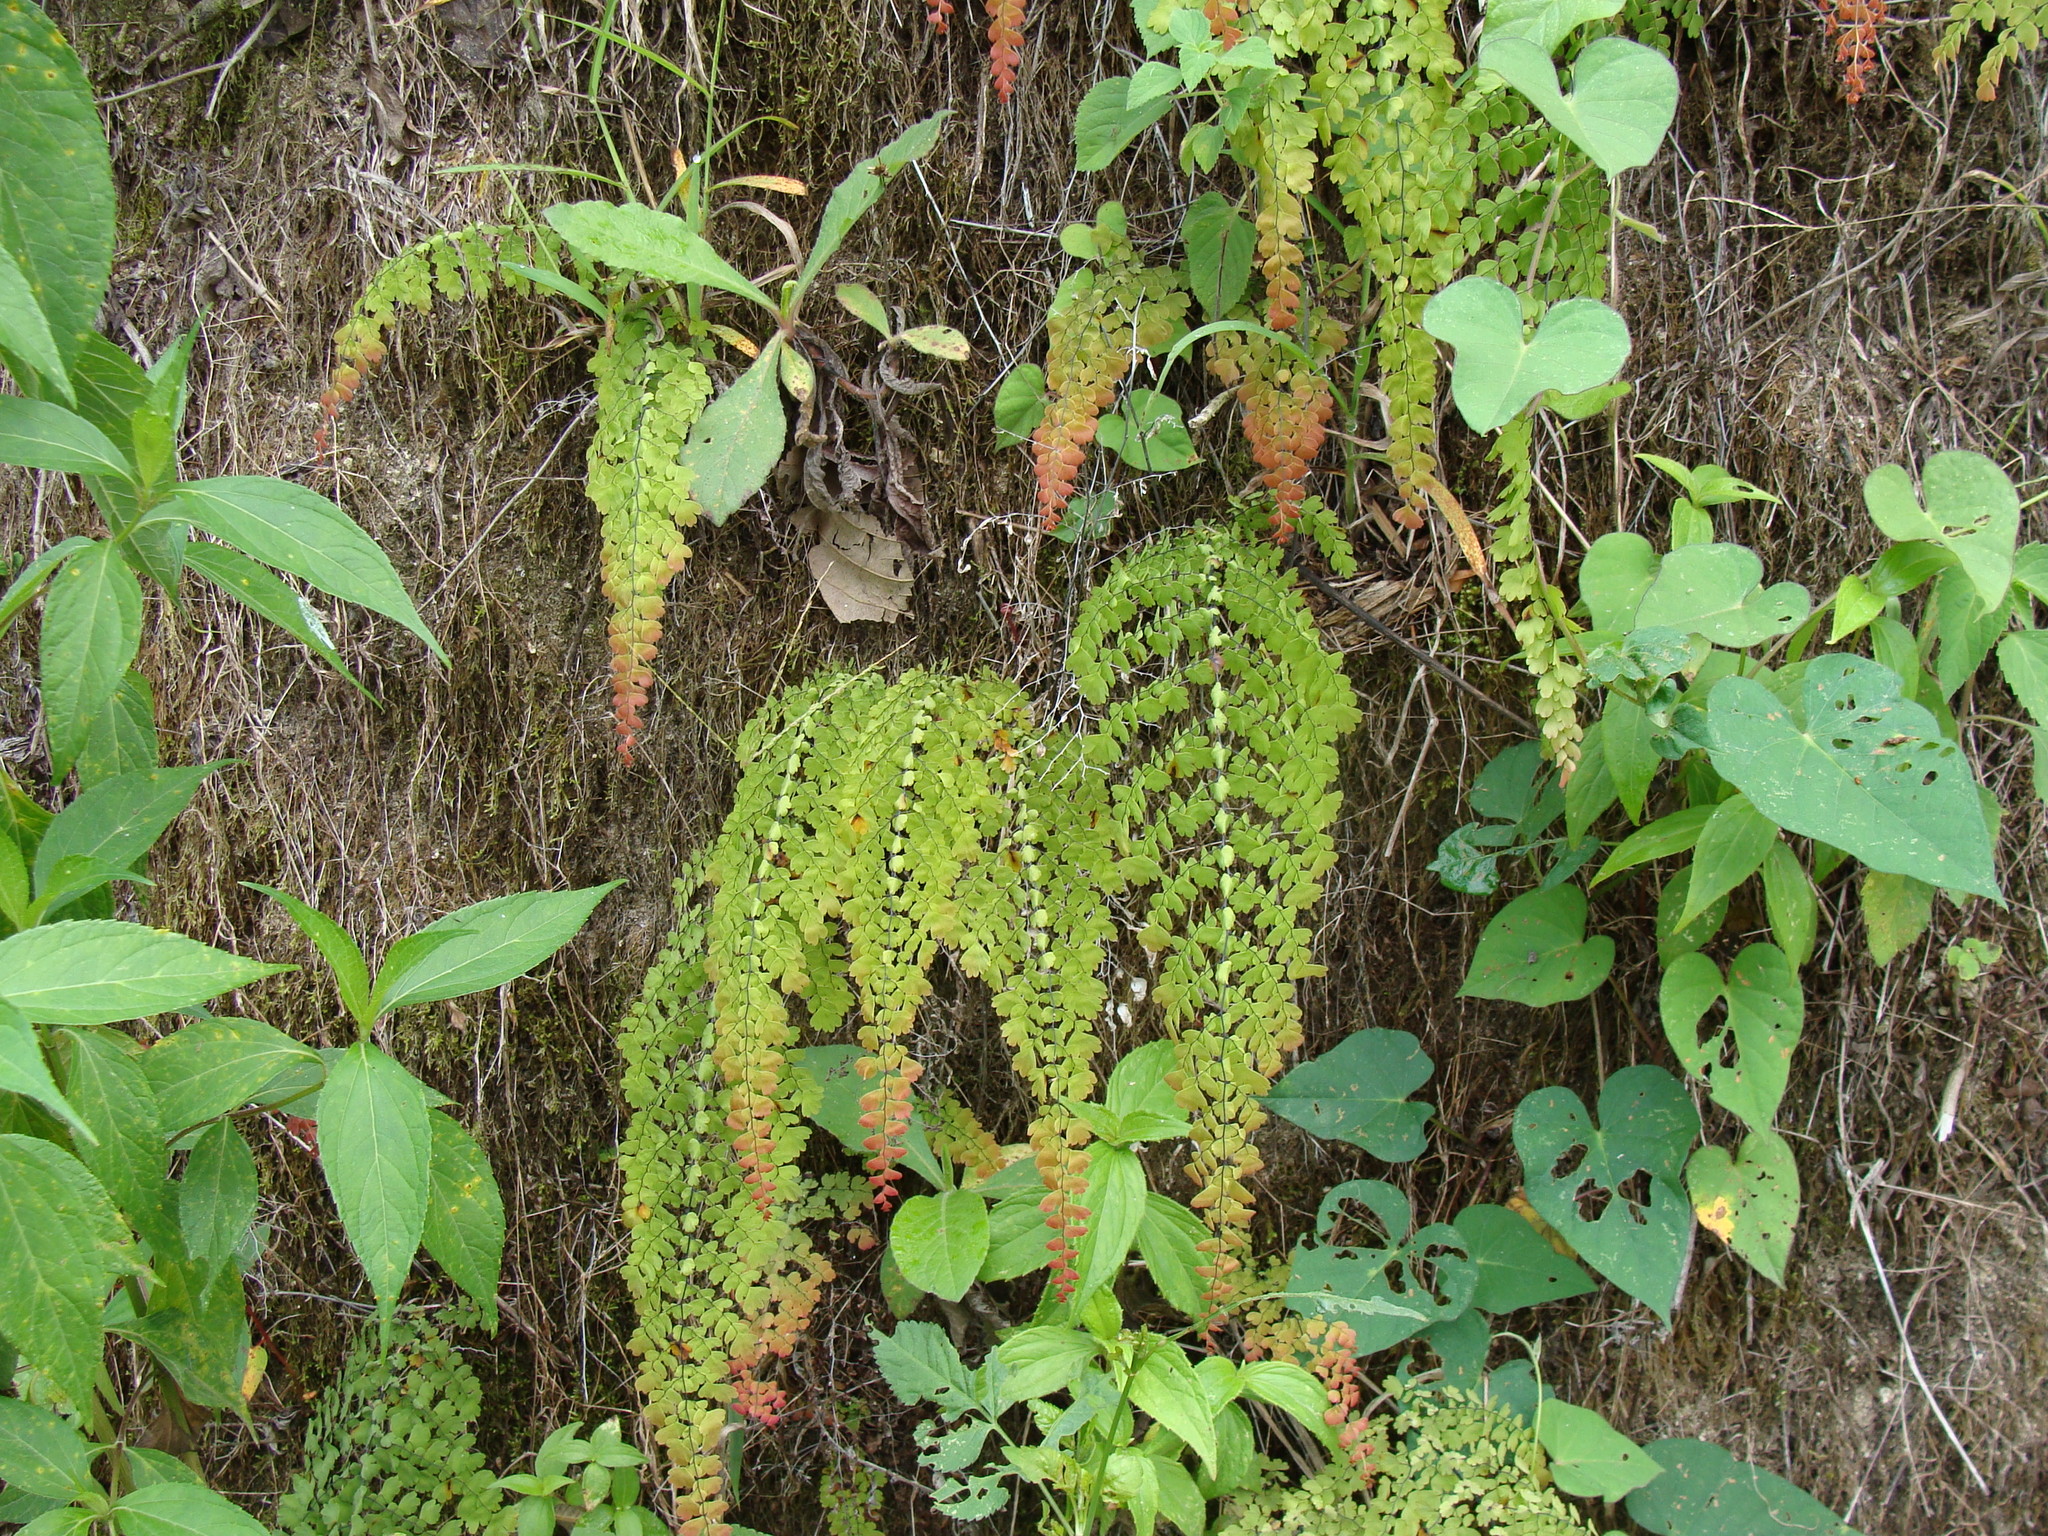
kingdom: Plantae
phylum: Tracheophyta
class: Polypodiopsida
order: Polypodiales
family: Pteridaceae
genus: Adiantum
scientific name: Adiantum concinnum
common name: Brittle maidenhair fern
